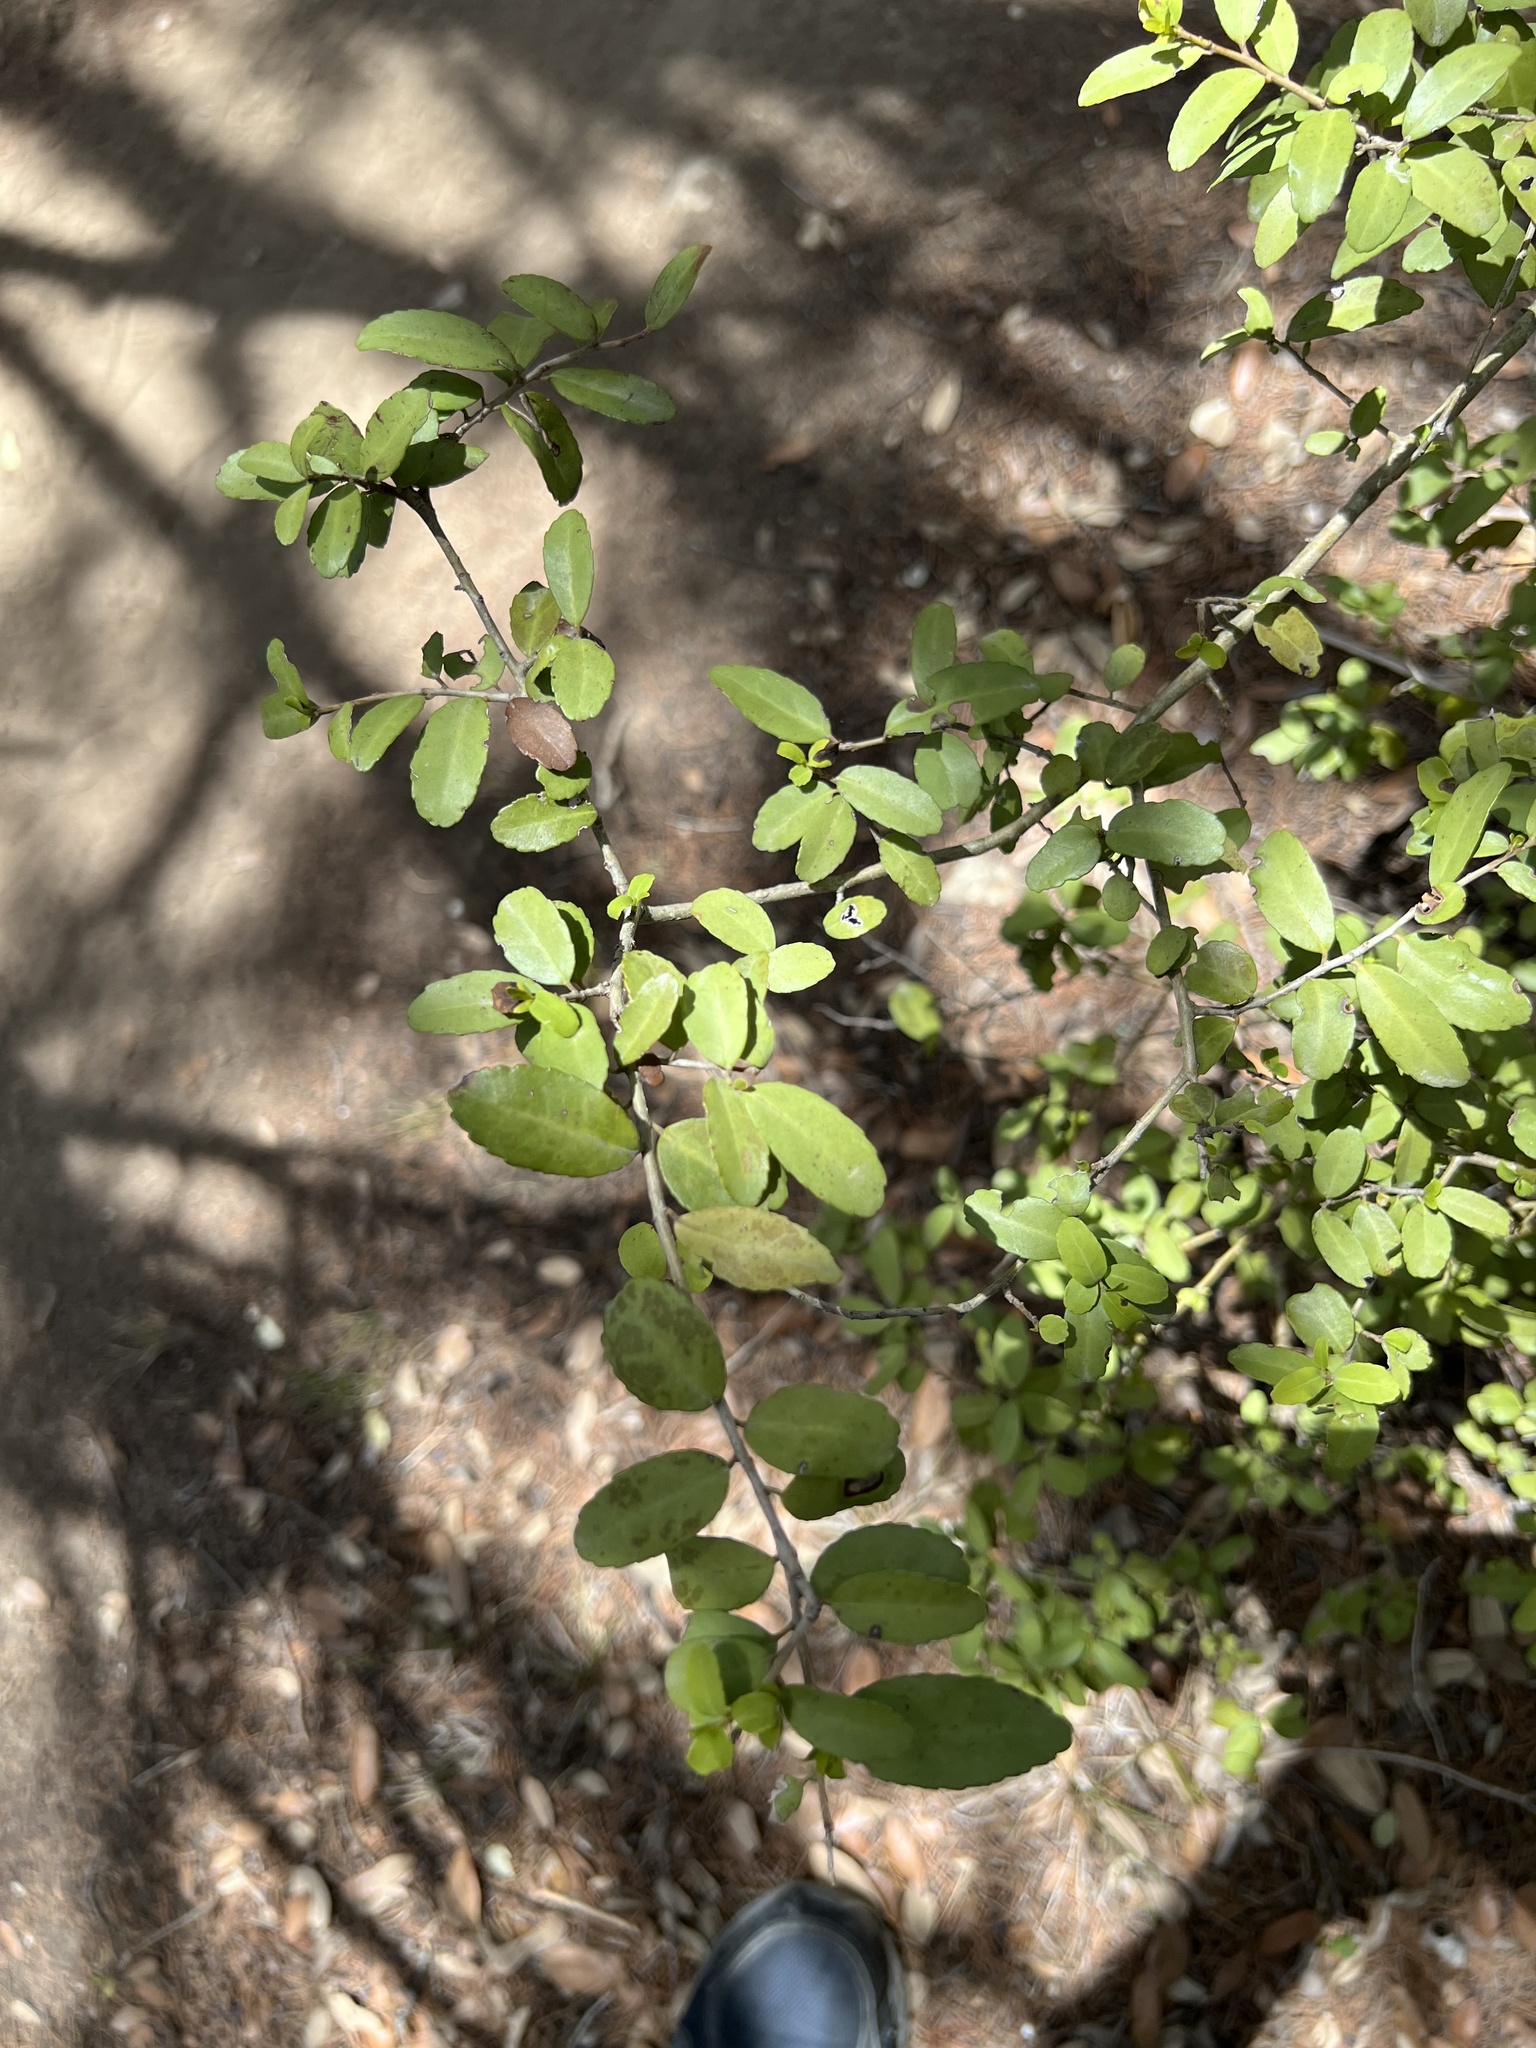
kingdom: Plantae
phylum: Tracheophyta
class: Magnoliopsida
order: Aquifoliales
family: Aquifoliaceae
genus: Ilex
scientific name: Ilex vomitoria
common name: Yaupon holly
